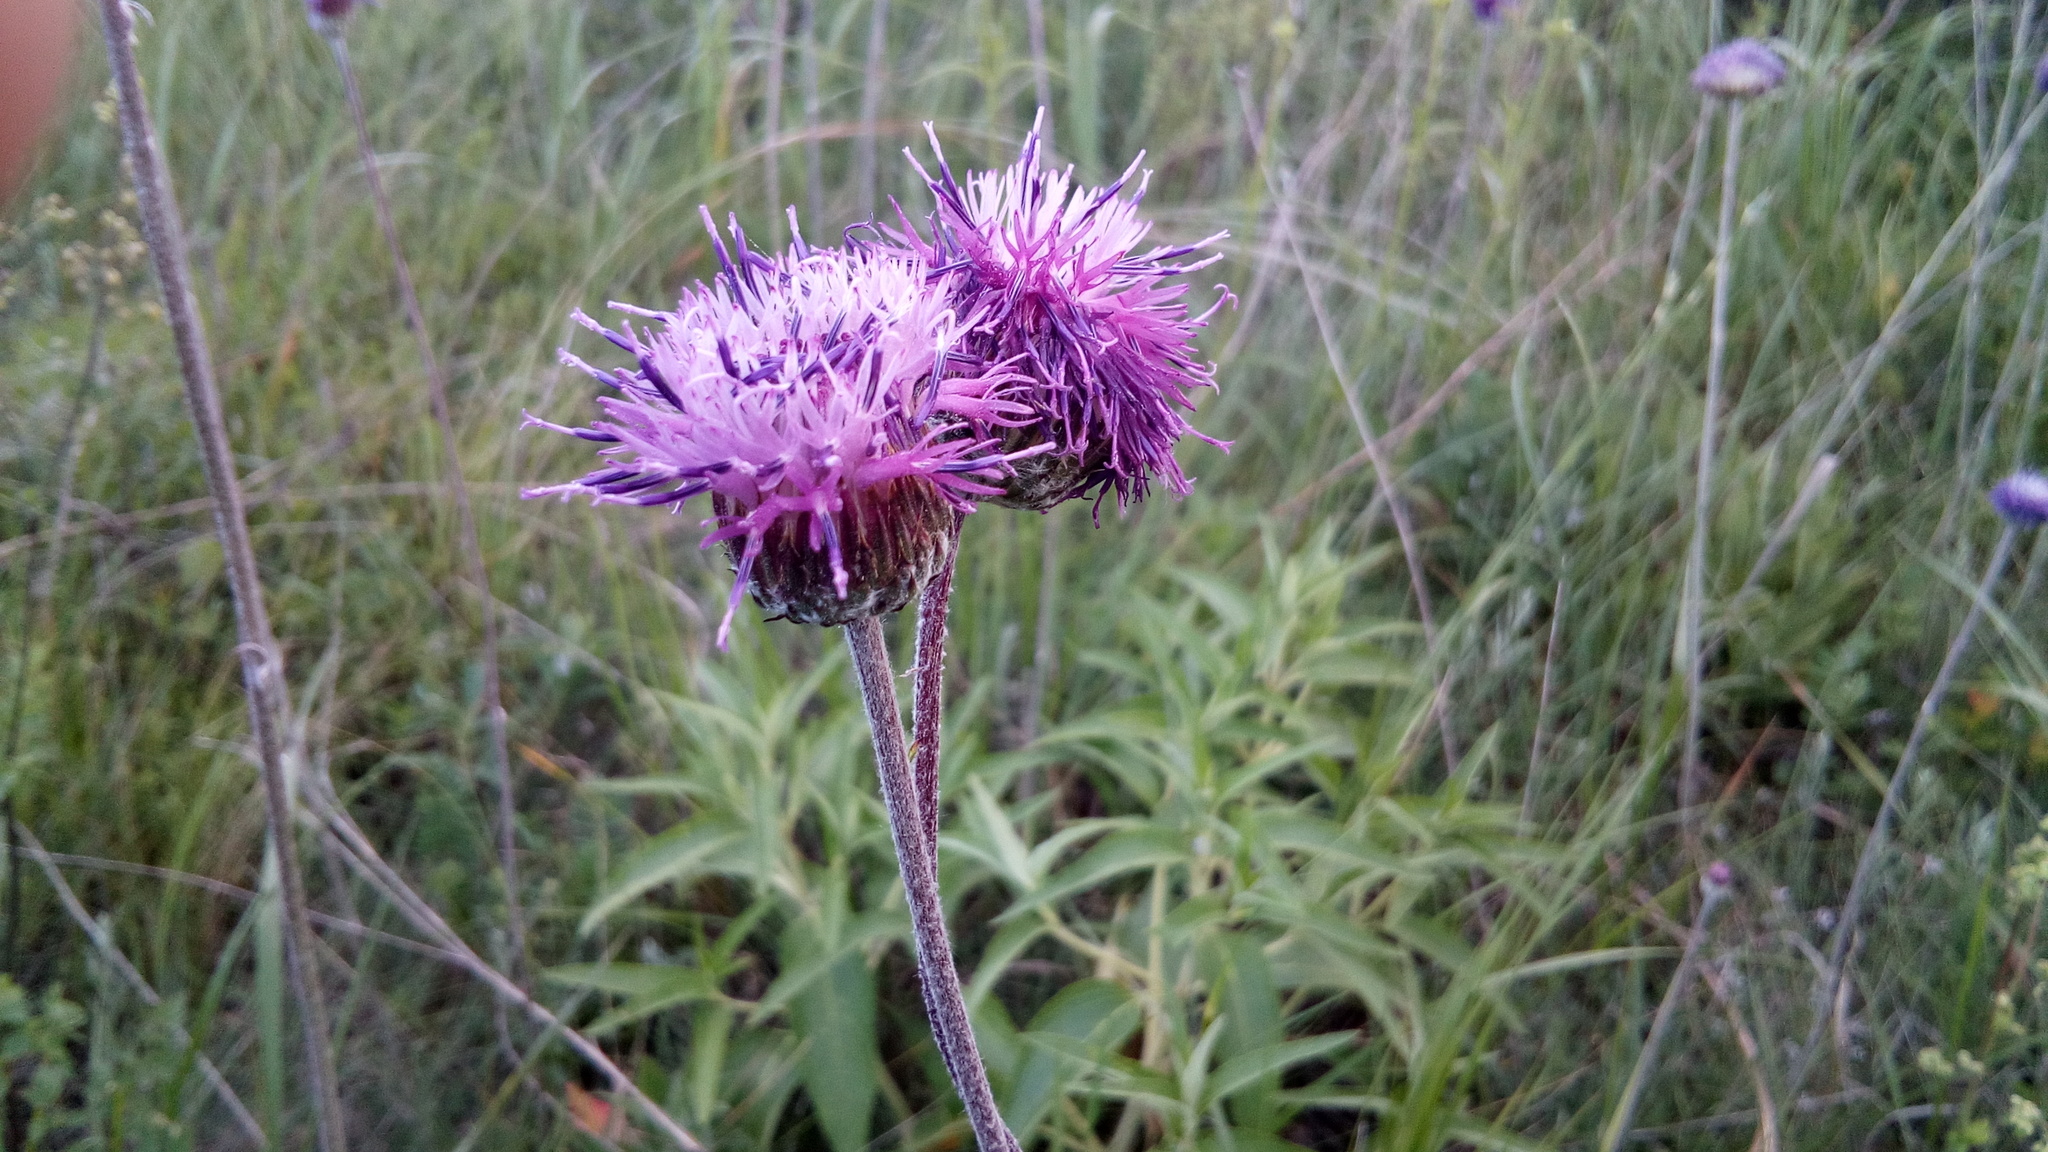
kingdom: Plantae
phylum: Tracheophyta
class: Magnoliopsida
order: Asterales
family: Asteraceae
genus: Jurinea
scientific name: Jurinea arachnoidea
